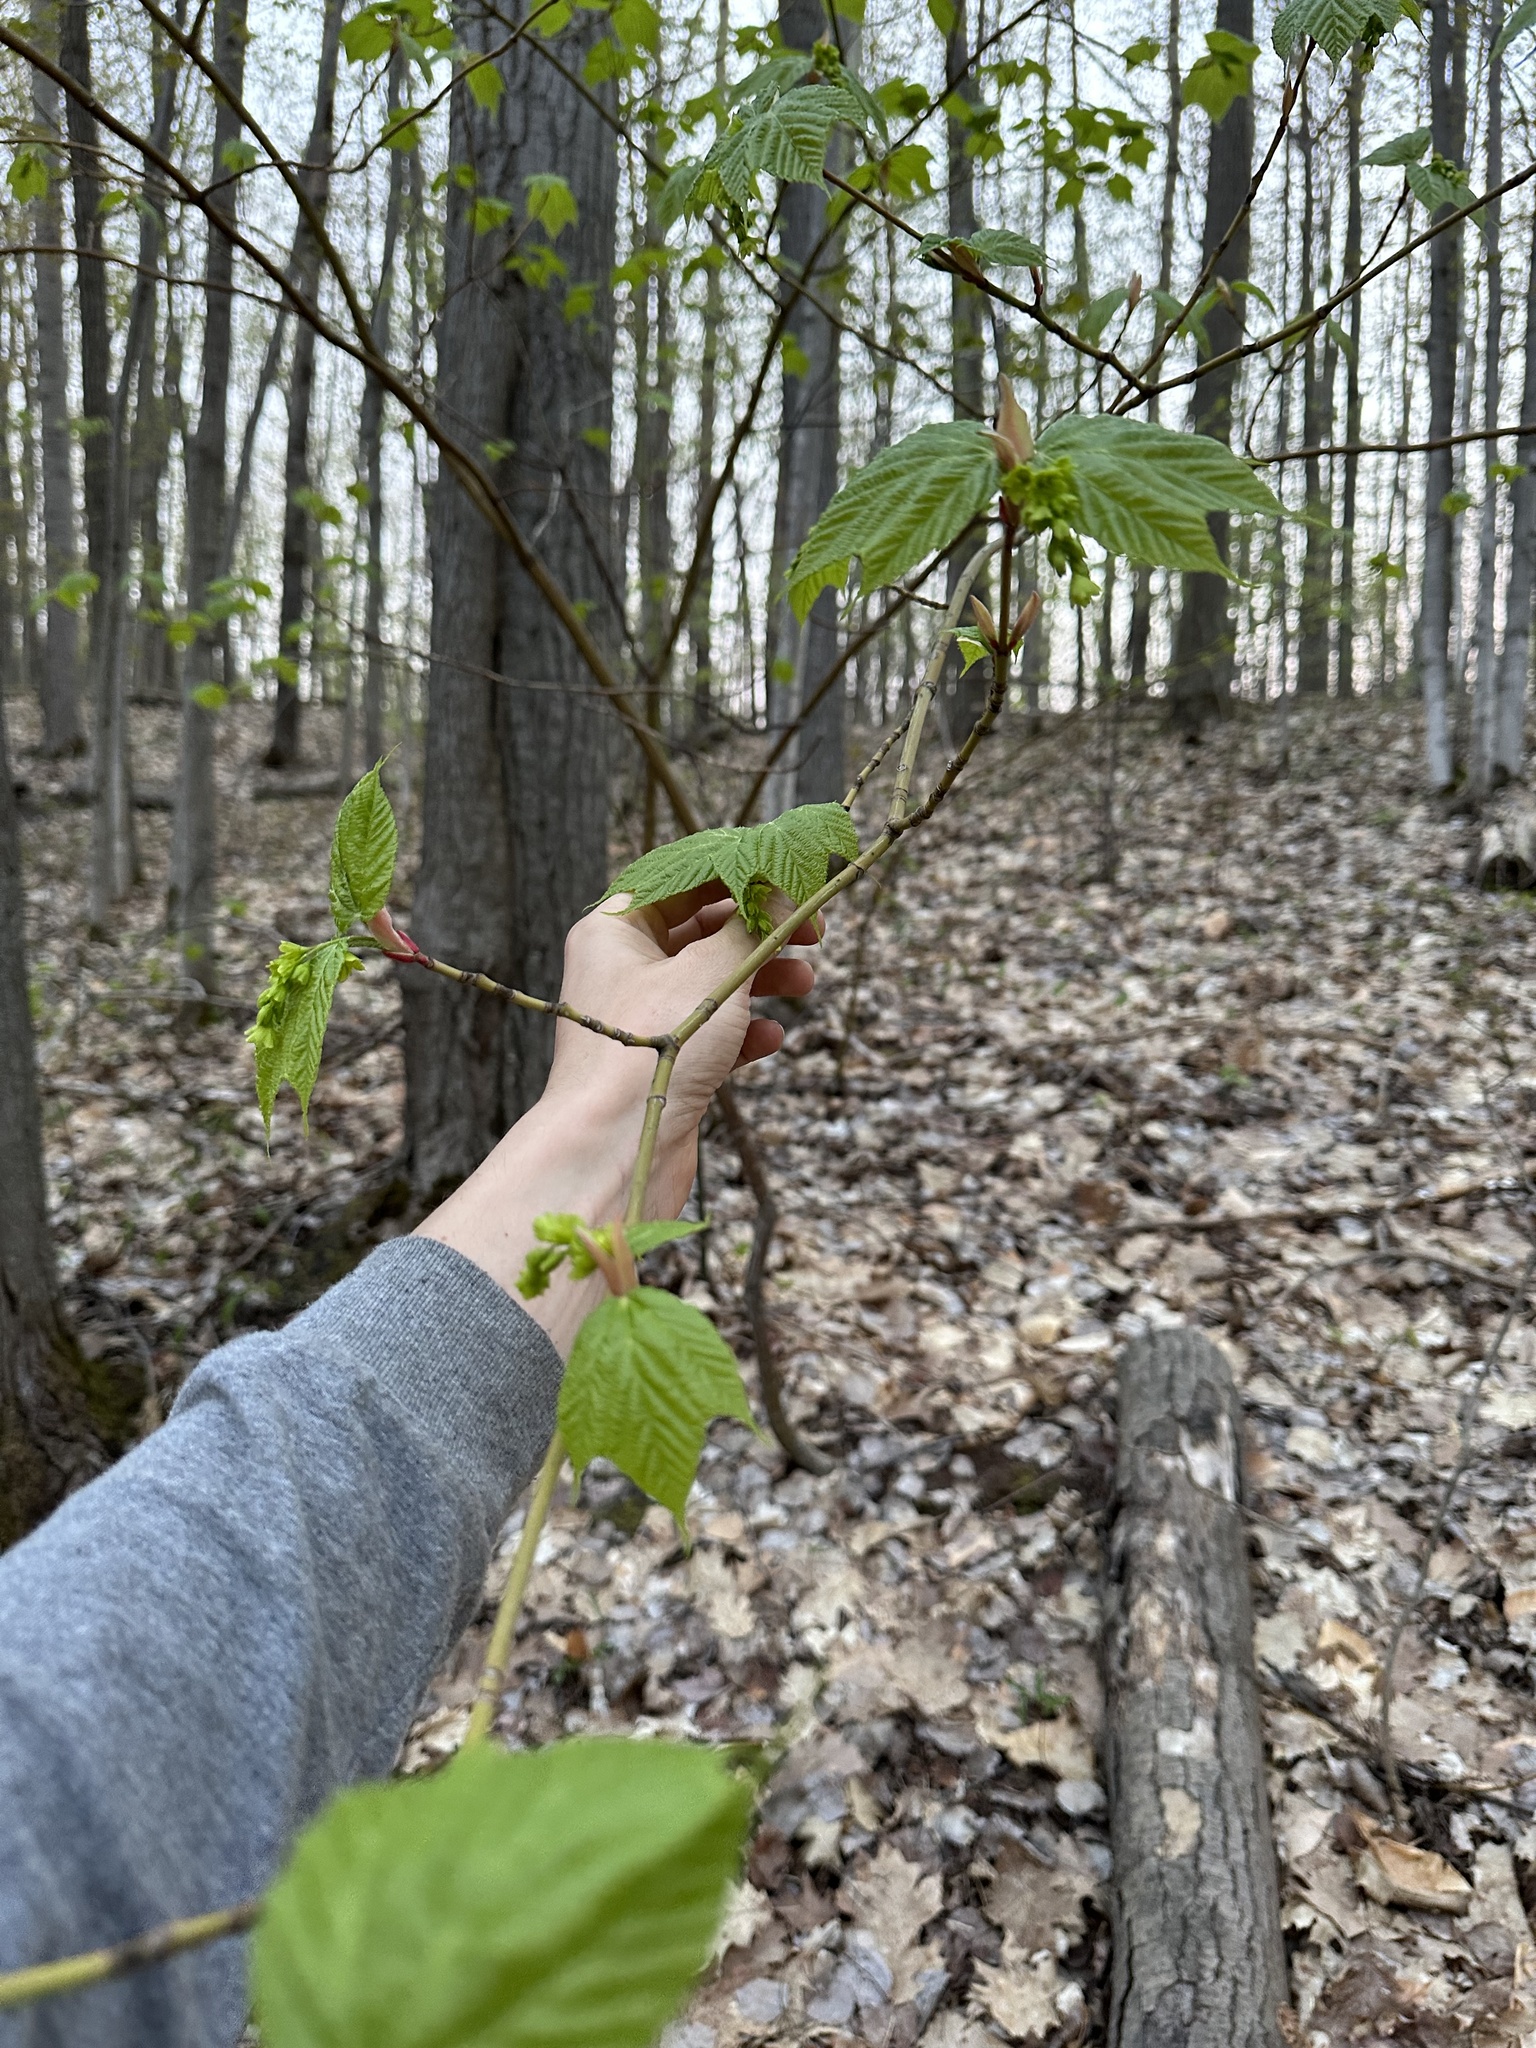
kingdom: Plantae
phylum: Tracheophyta
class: Magnoliopsida
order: Sapindales
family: Sapindaceae
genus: Acer
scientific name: Acer pensylvanicum
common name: Moosewood
